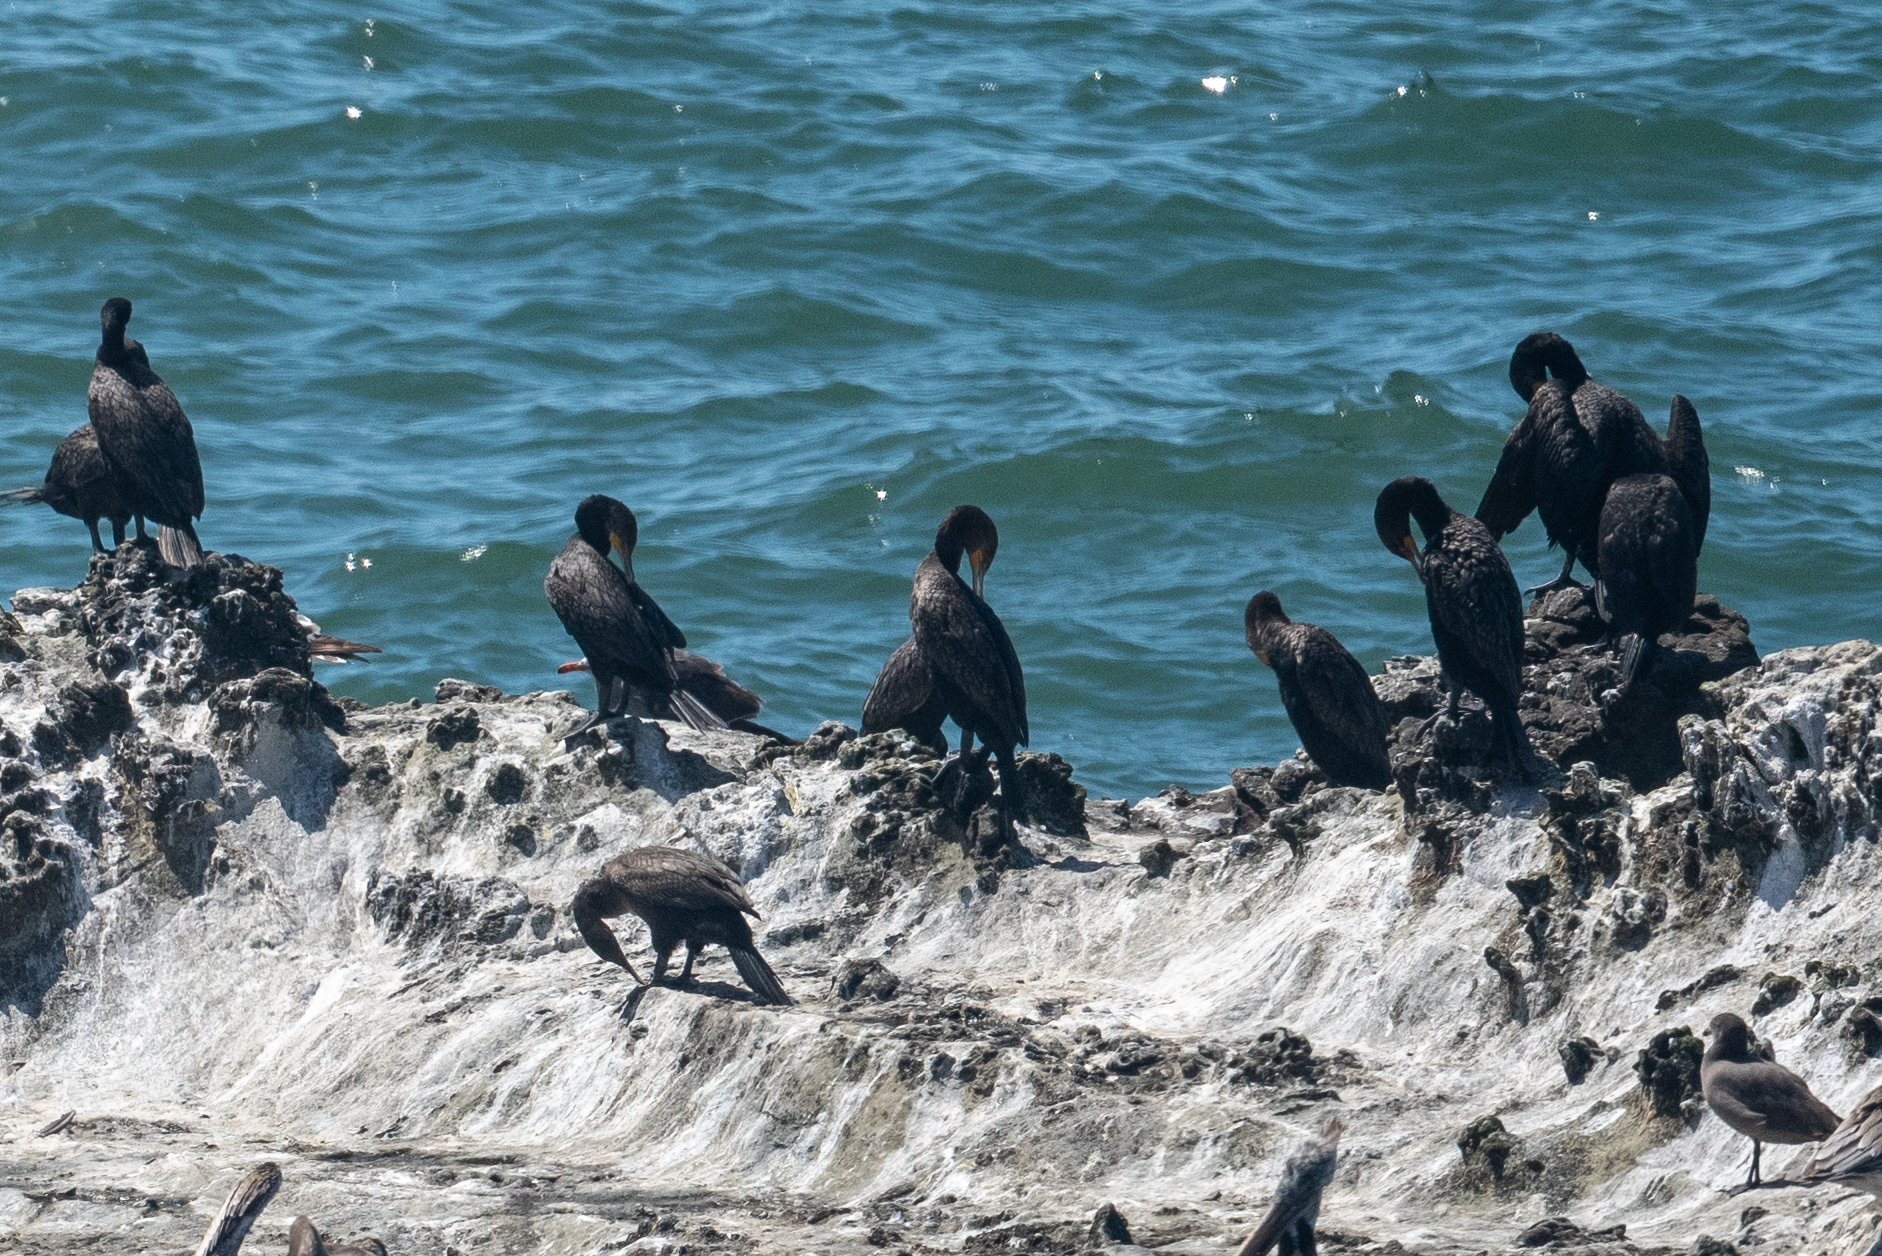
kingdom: Animalia
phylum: Chordata
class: Aves
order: Suliformes
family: Phalacrocoracidae
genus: Phalacrocorax
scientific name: Phalacrocorax auritus
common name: Double-crested cormorant
